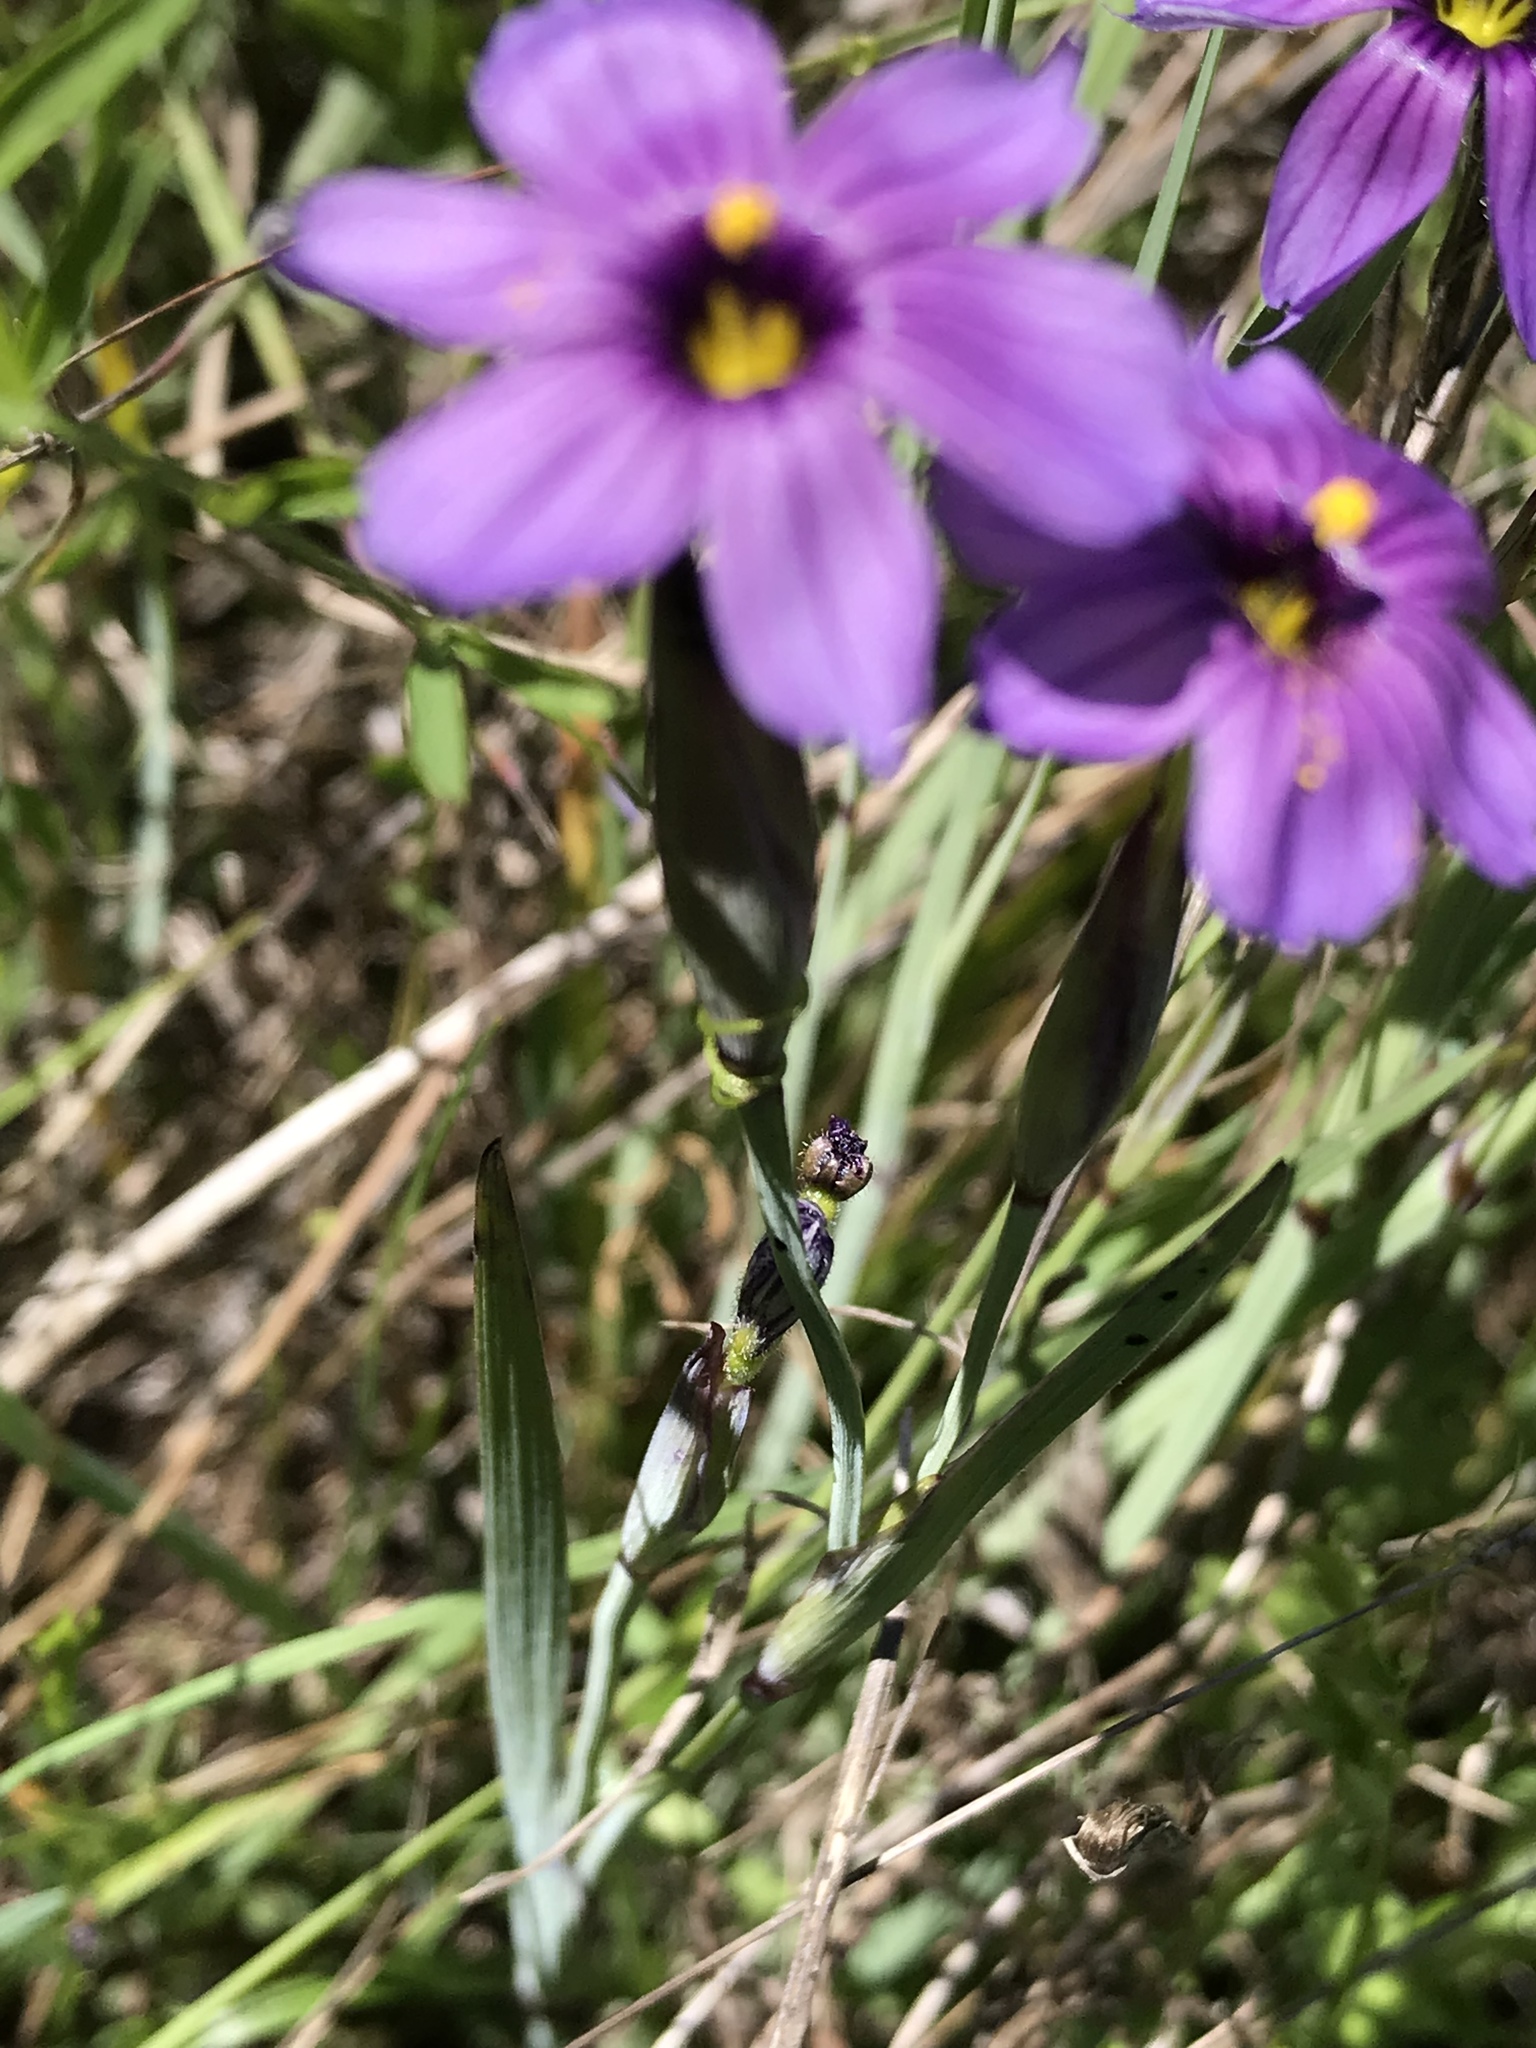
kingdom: Plantae
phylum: Tracheophyta
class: Liliopsida
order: Asparagales
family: Iridaceae
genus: Sisyrinchium
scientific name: Sisyrinchium bellum
